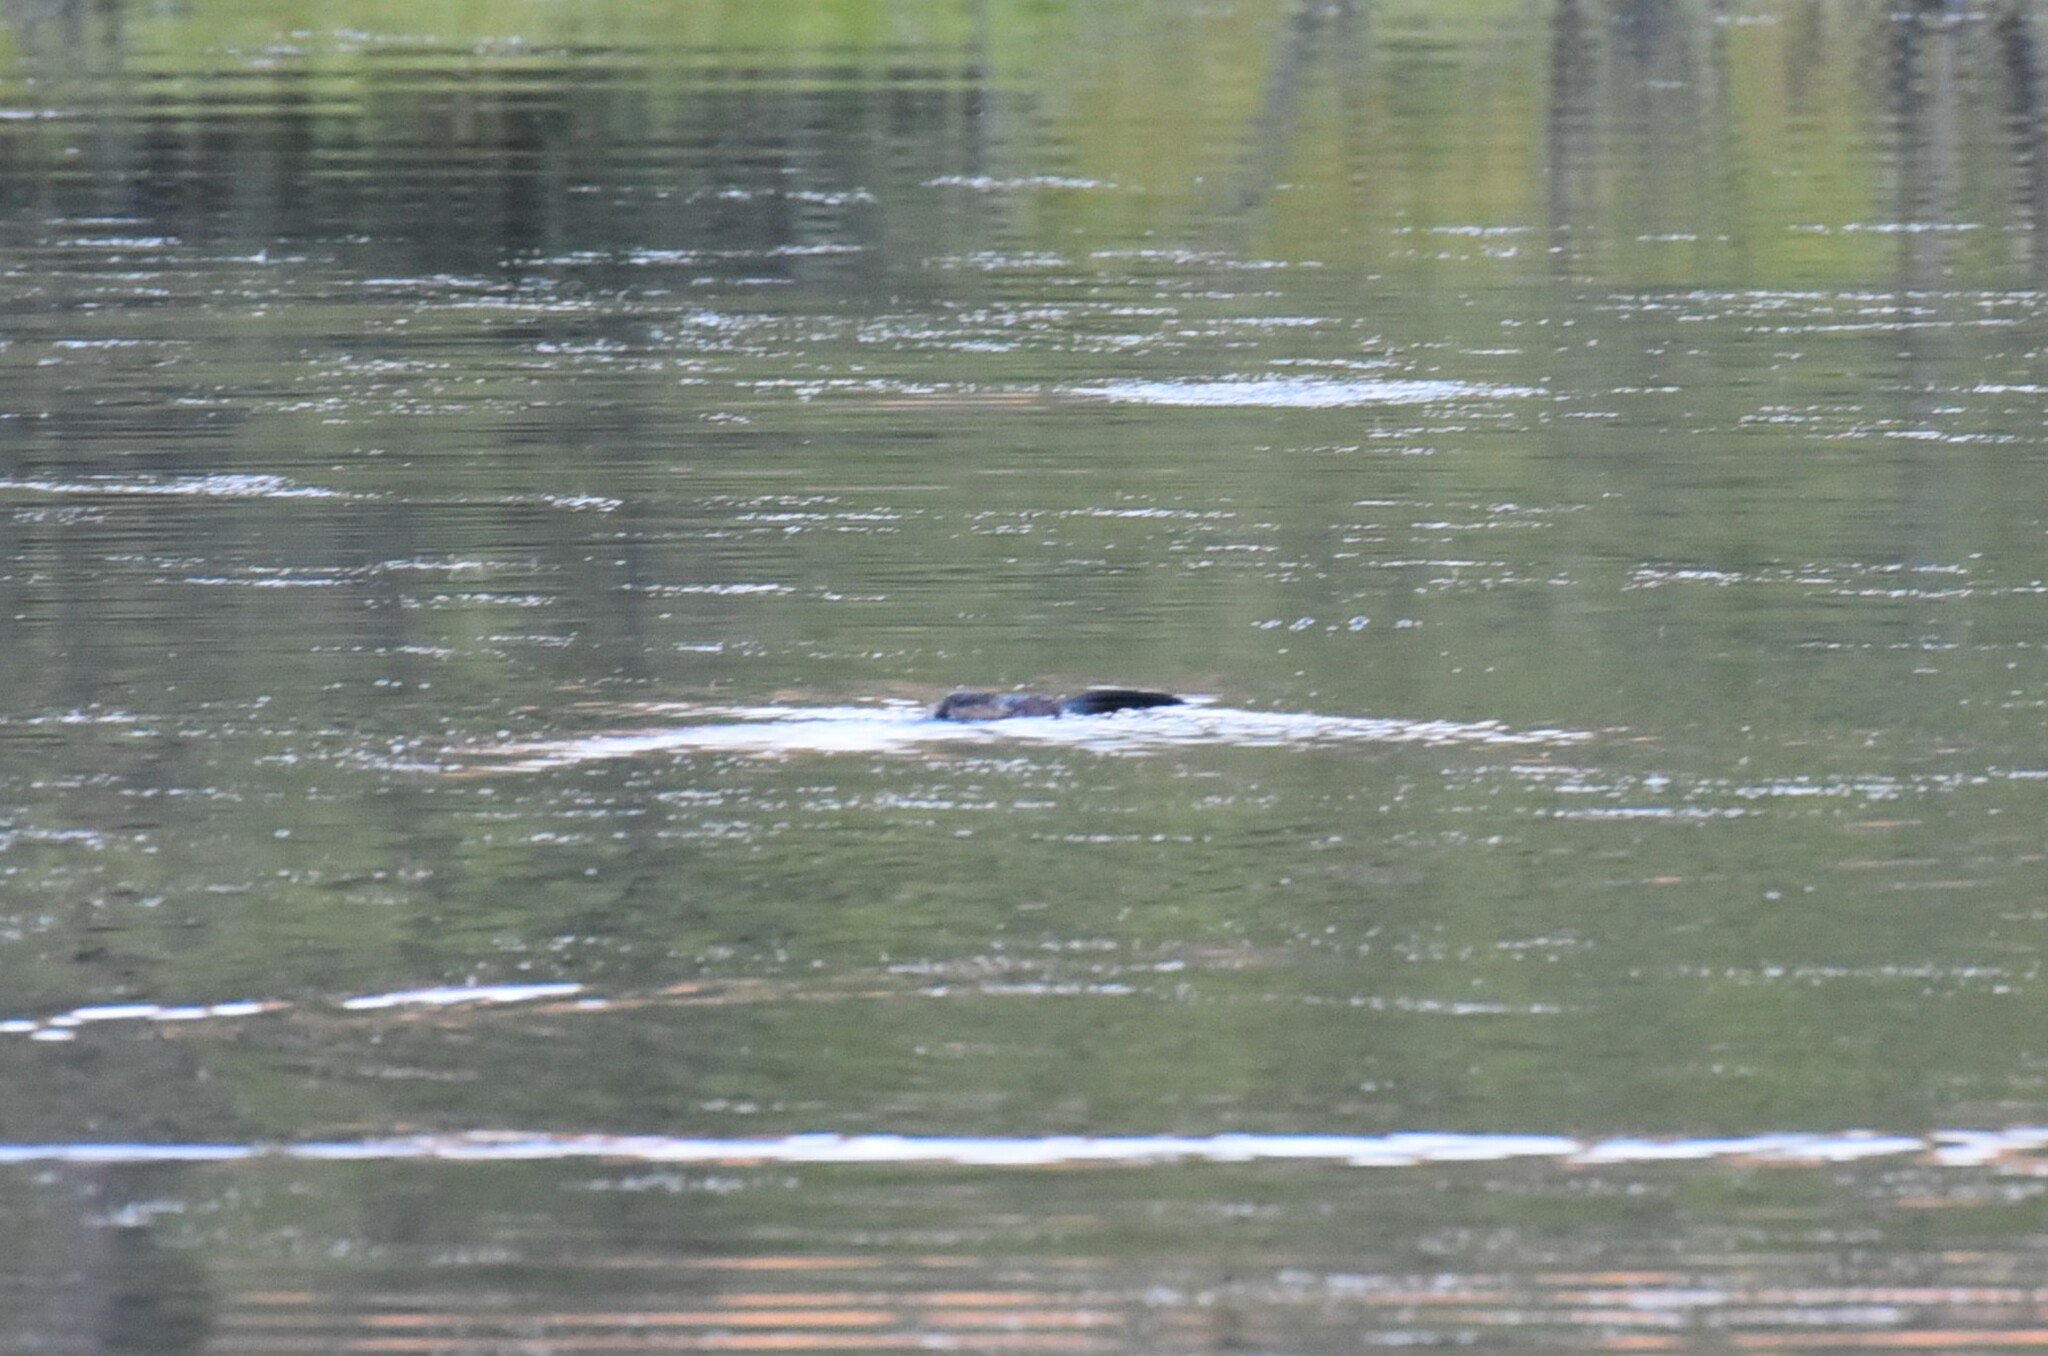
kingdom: Animalia
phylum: Chordata
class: Mammalia
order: Rodentia
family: Cricetidae
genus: Ondatra
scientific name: Ondatra zibethicus
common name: Muskrat
